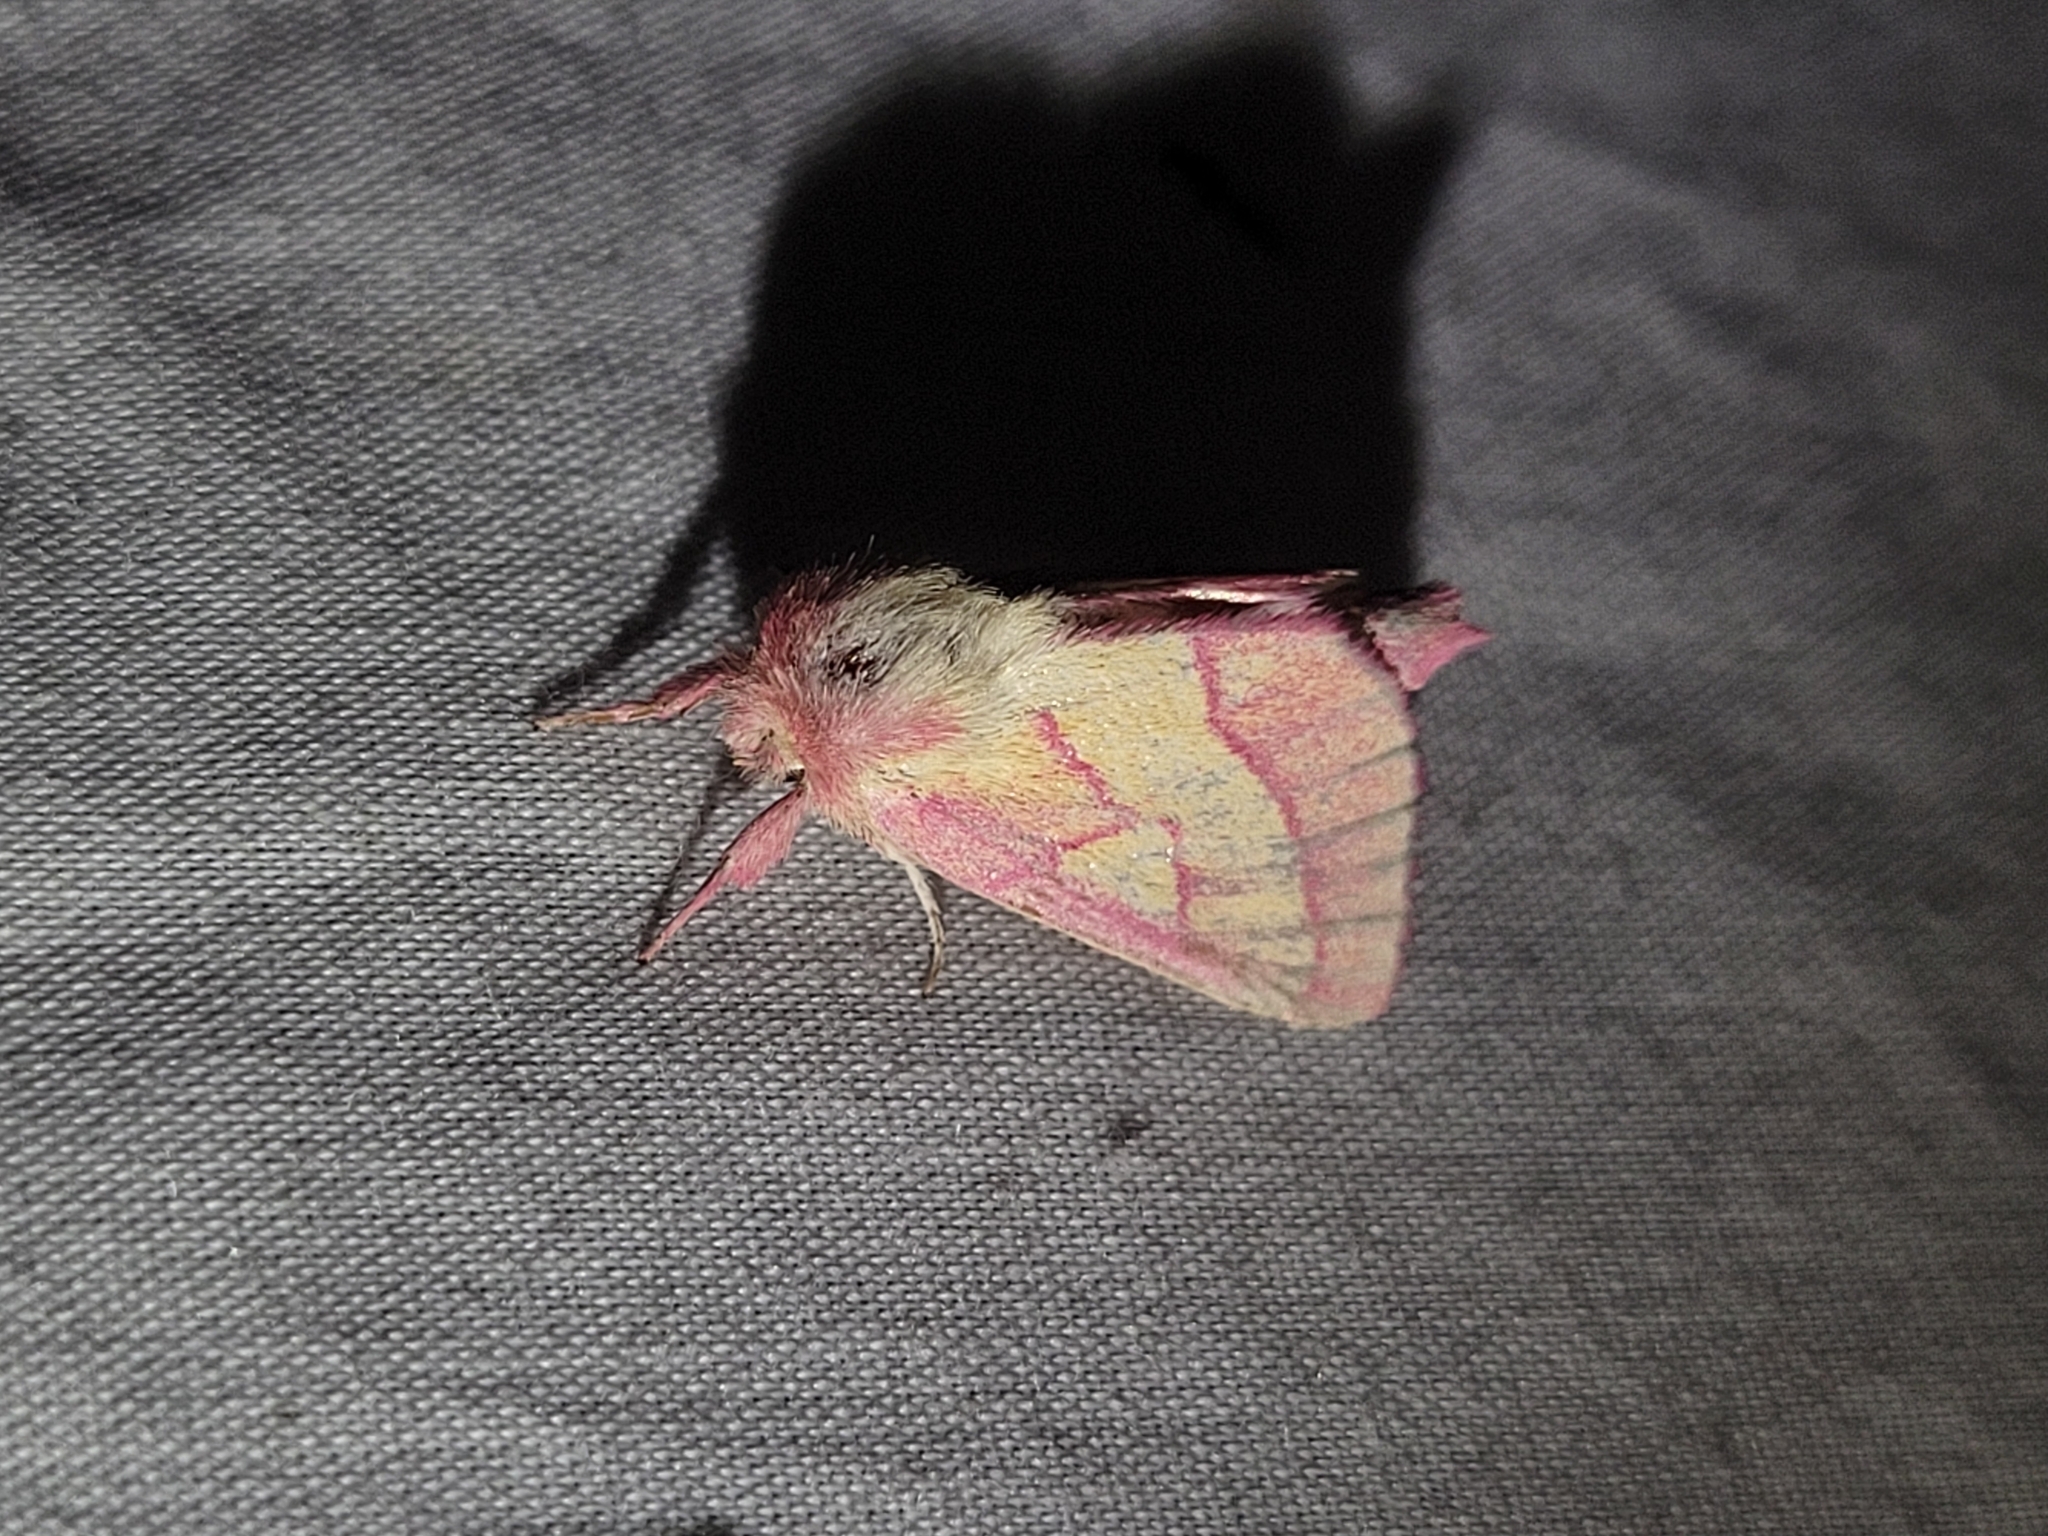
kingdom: Animalia
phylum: Arthropoda
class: Insecta
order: Lepidoptera
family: Notodontidae
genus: Hyparpax
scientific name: Hyparpax aurora
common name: Pink prominent
